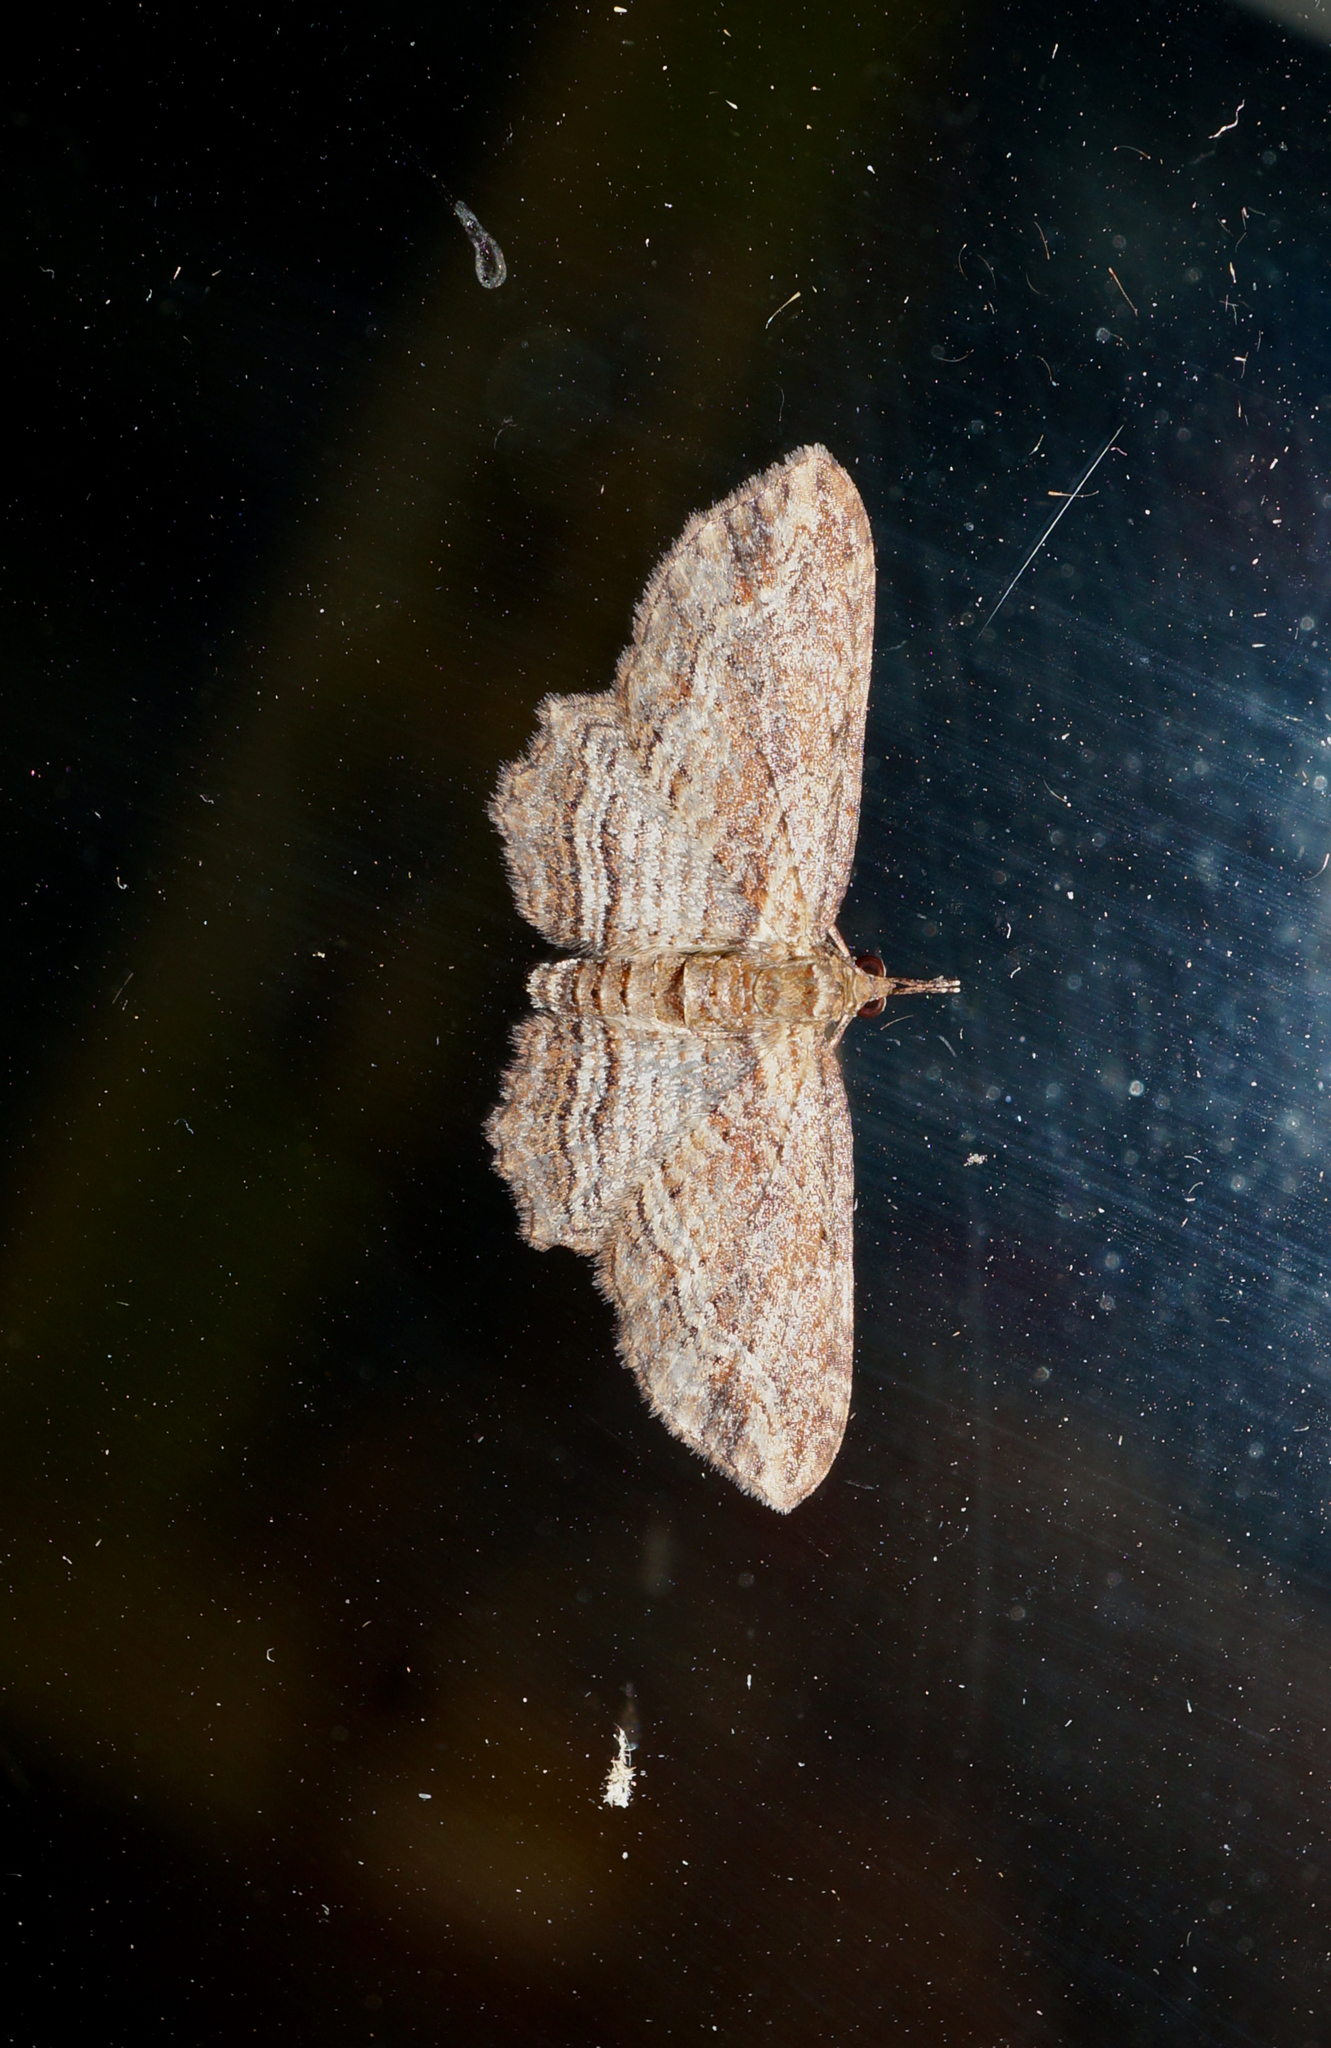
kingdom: Animalia
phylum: Arthropoda
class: Insecta
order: Lepidoptera
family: Geometridae
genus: Chloroclystis
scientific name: Chloroclystis filata
